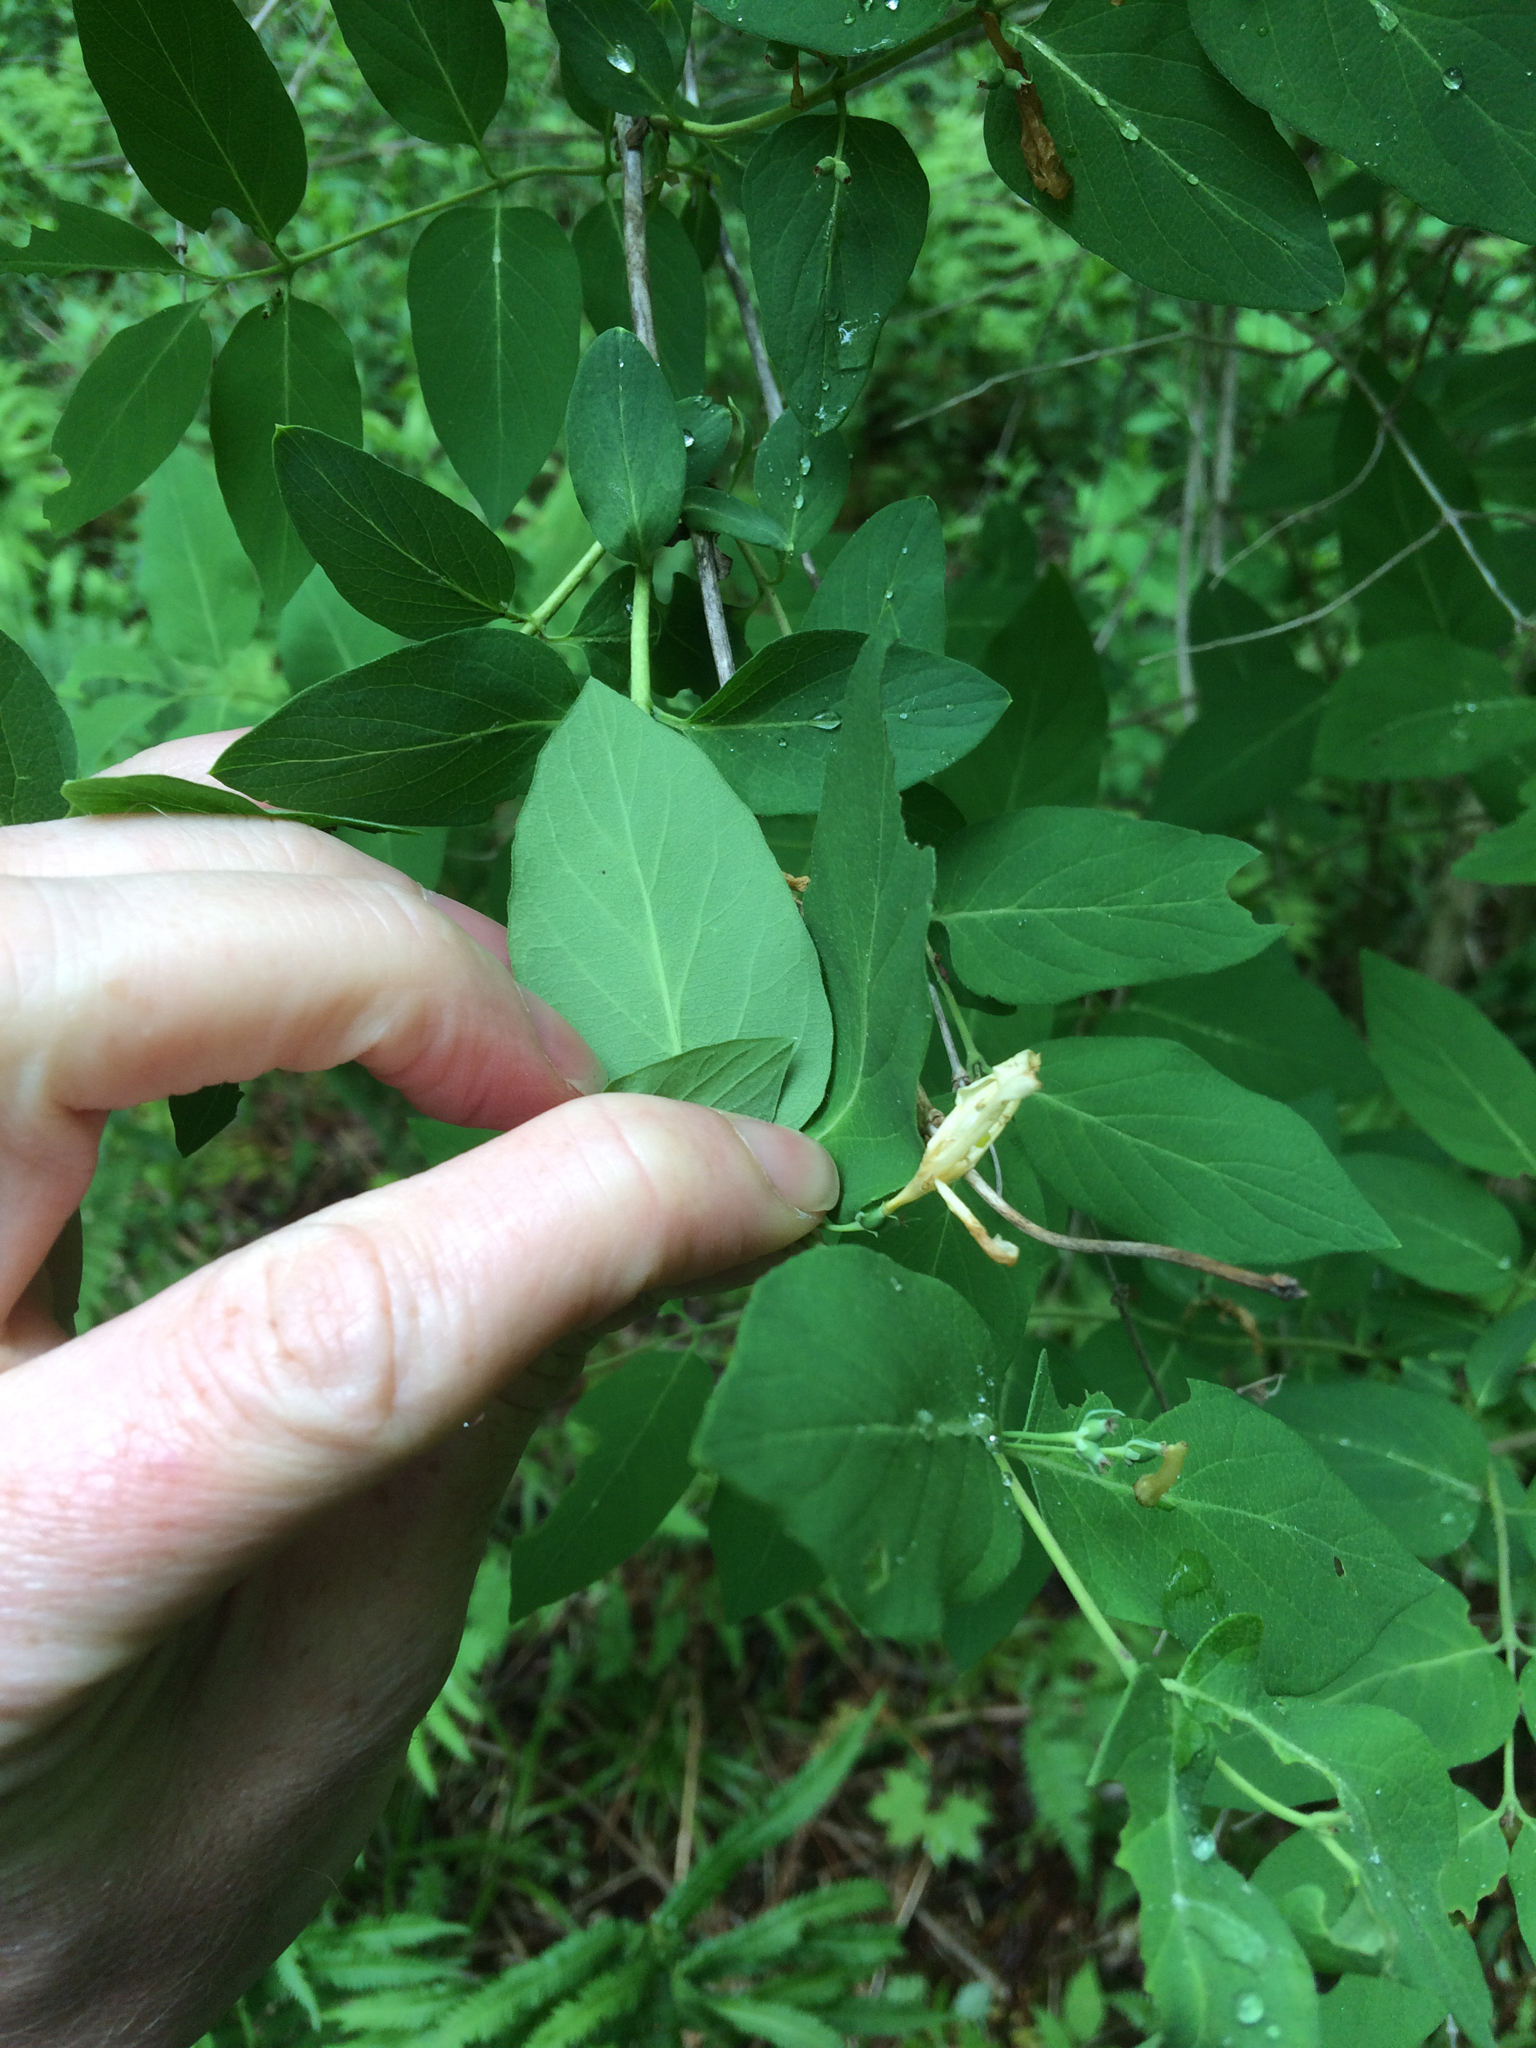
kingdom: Plantae
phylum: Tracheophyta
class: Magnoliopsida
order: Dipsacales
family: Caprifoliaceae
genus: Lonicera
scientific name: Lonicera morrowii
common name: Morrow's honeysuckle
